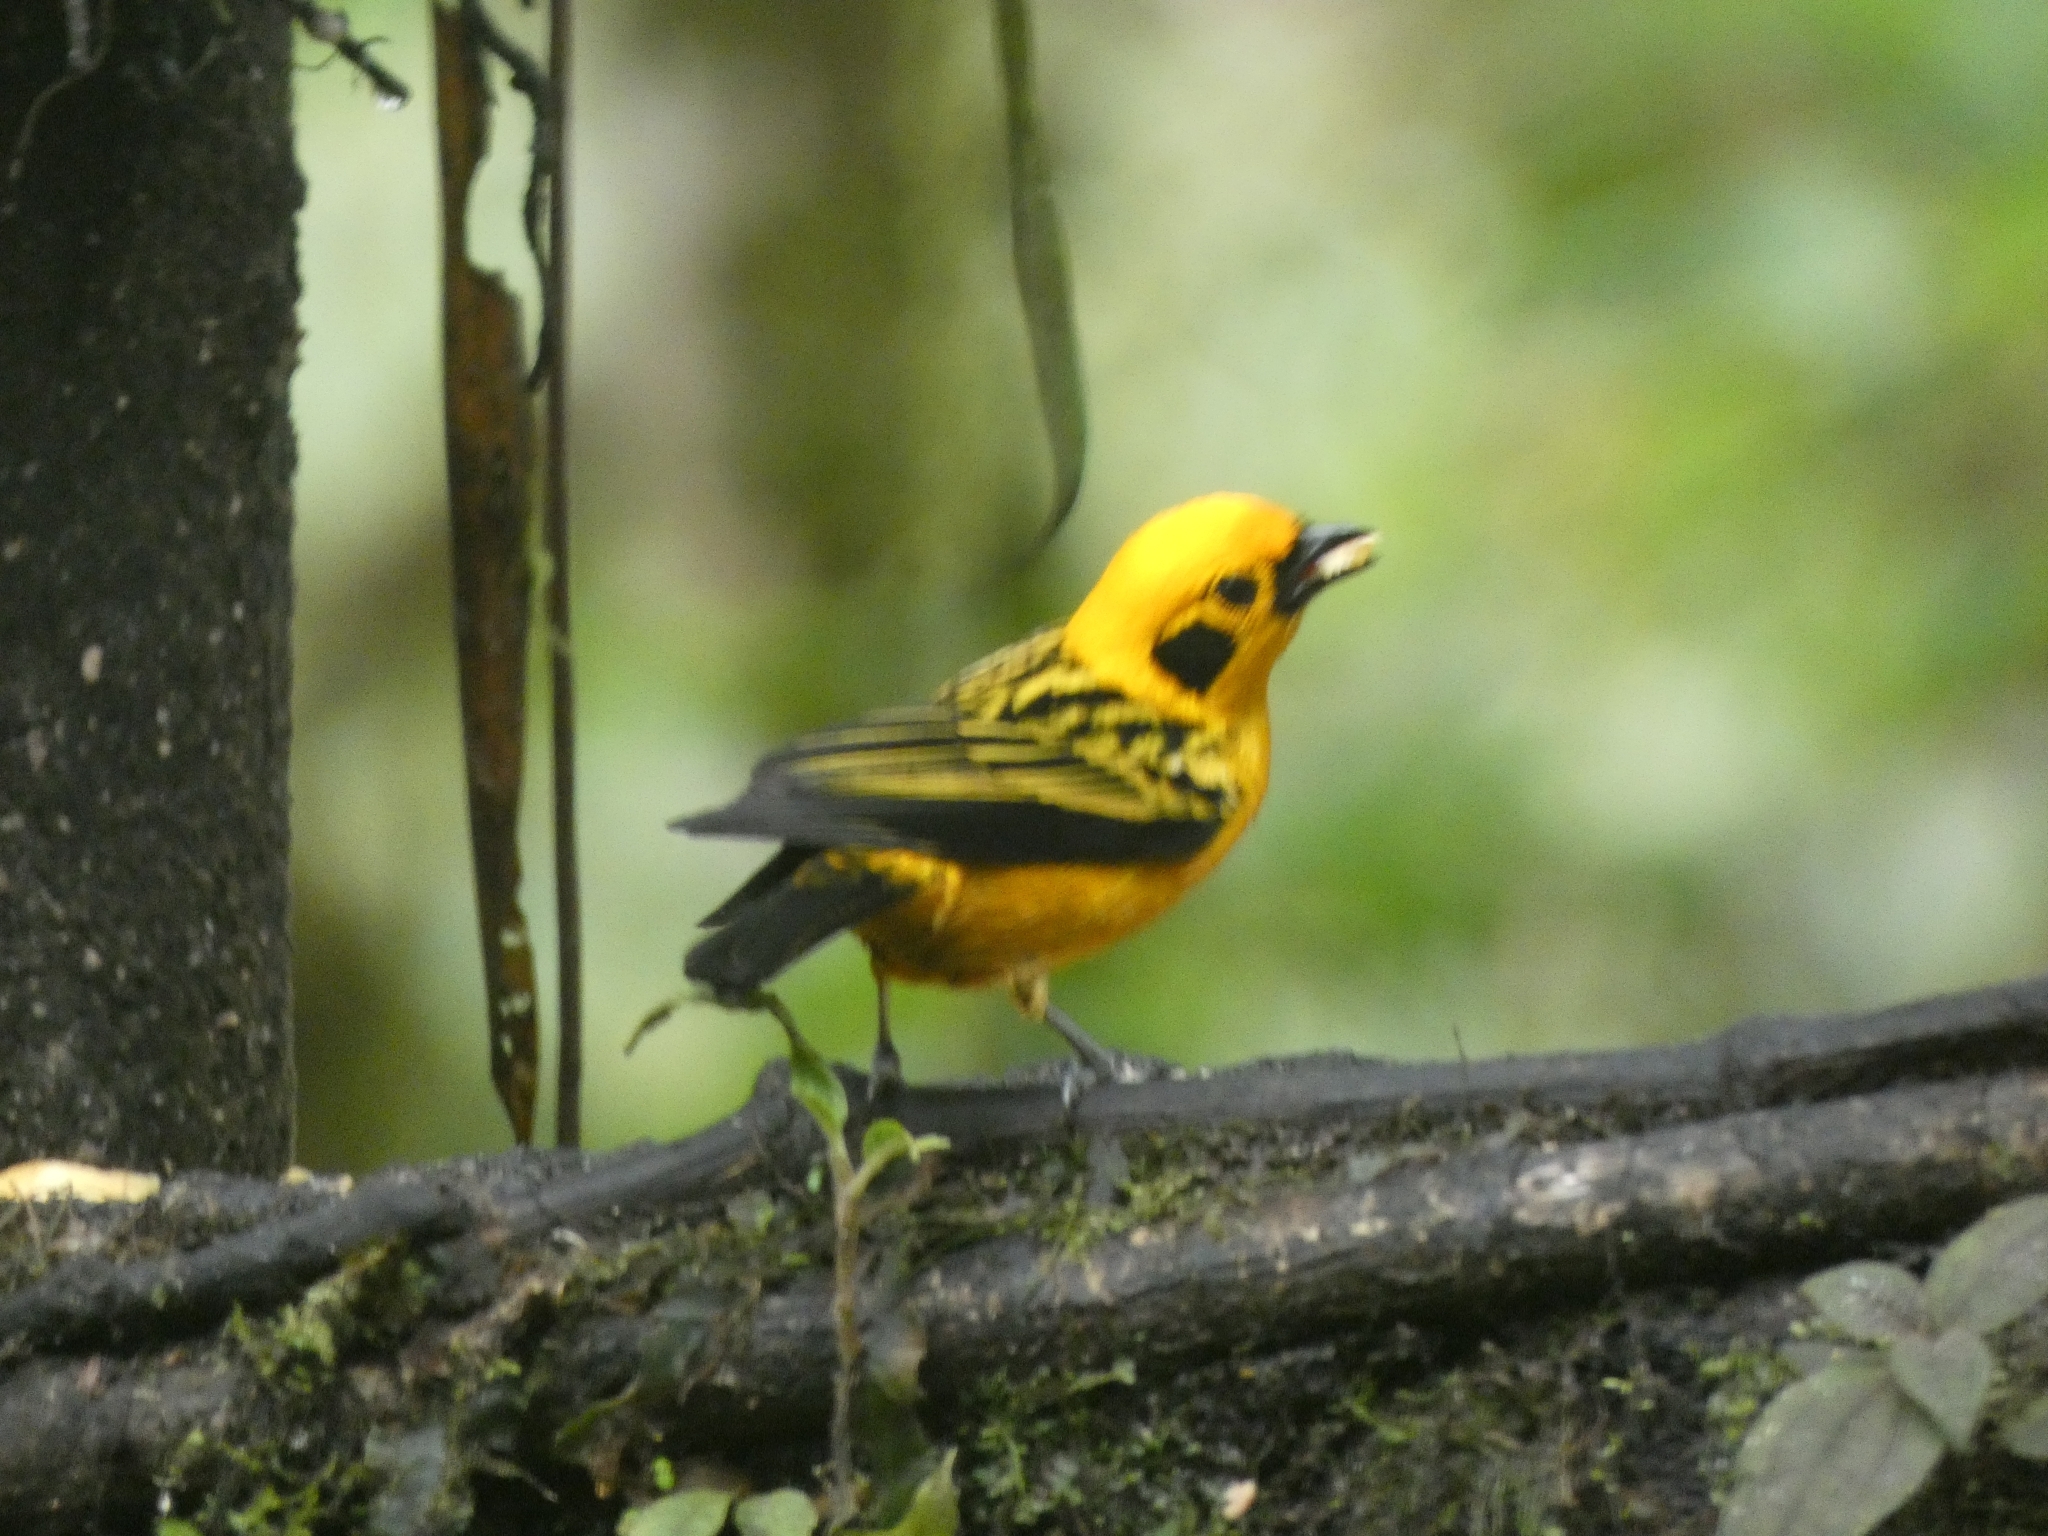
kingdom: Animalia
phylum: Chordata
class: Aves
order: Passeriformes
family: Thraupidae
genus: Tangara
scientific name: Tangara arthus
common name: Golden tanager
